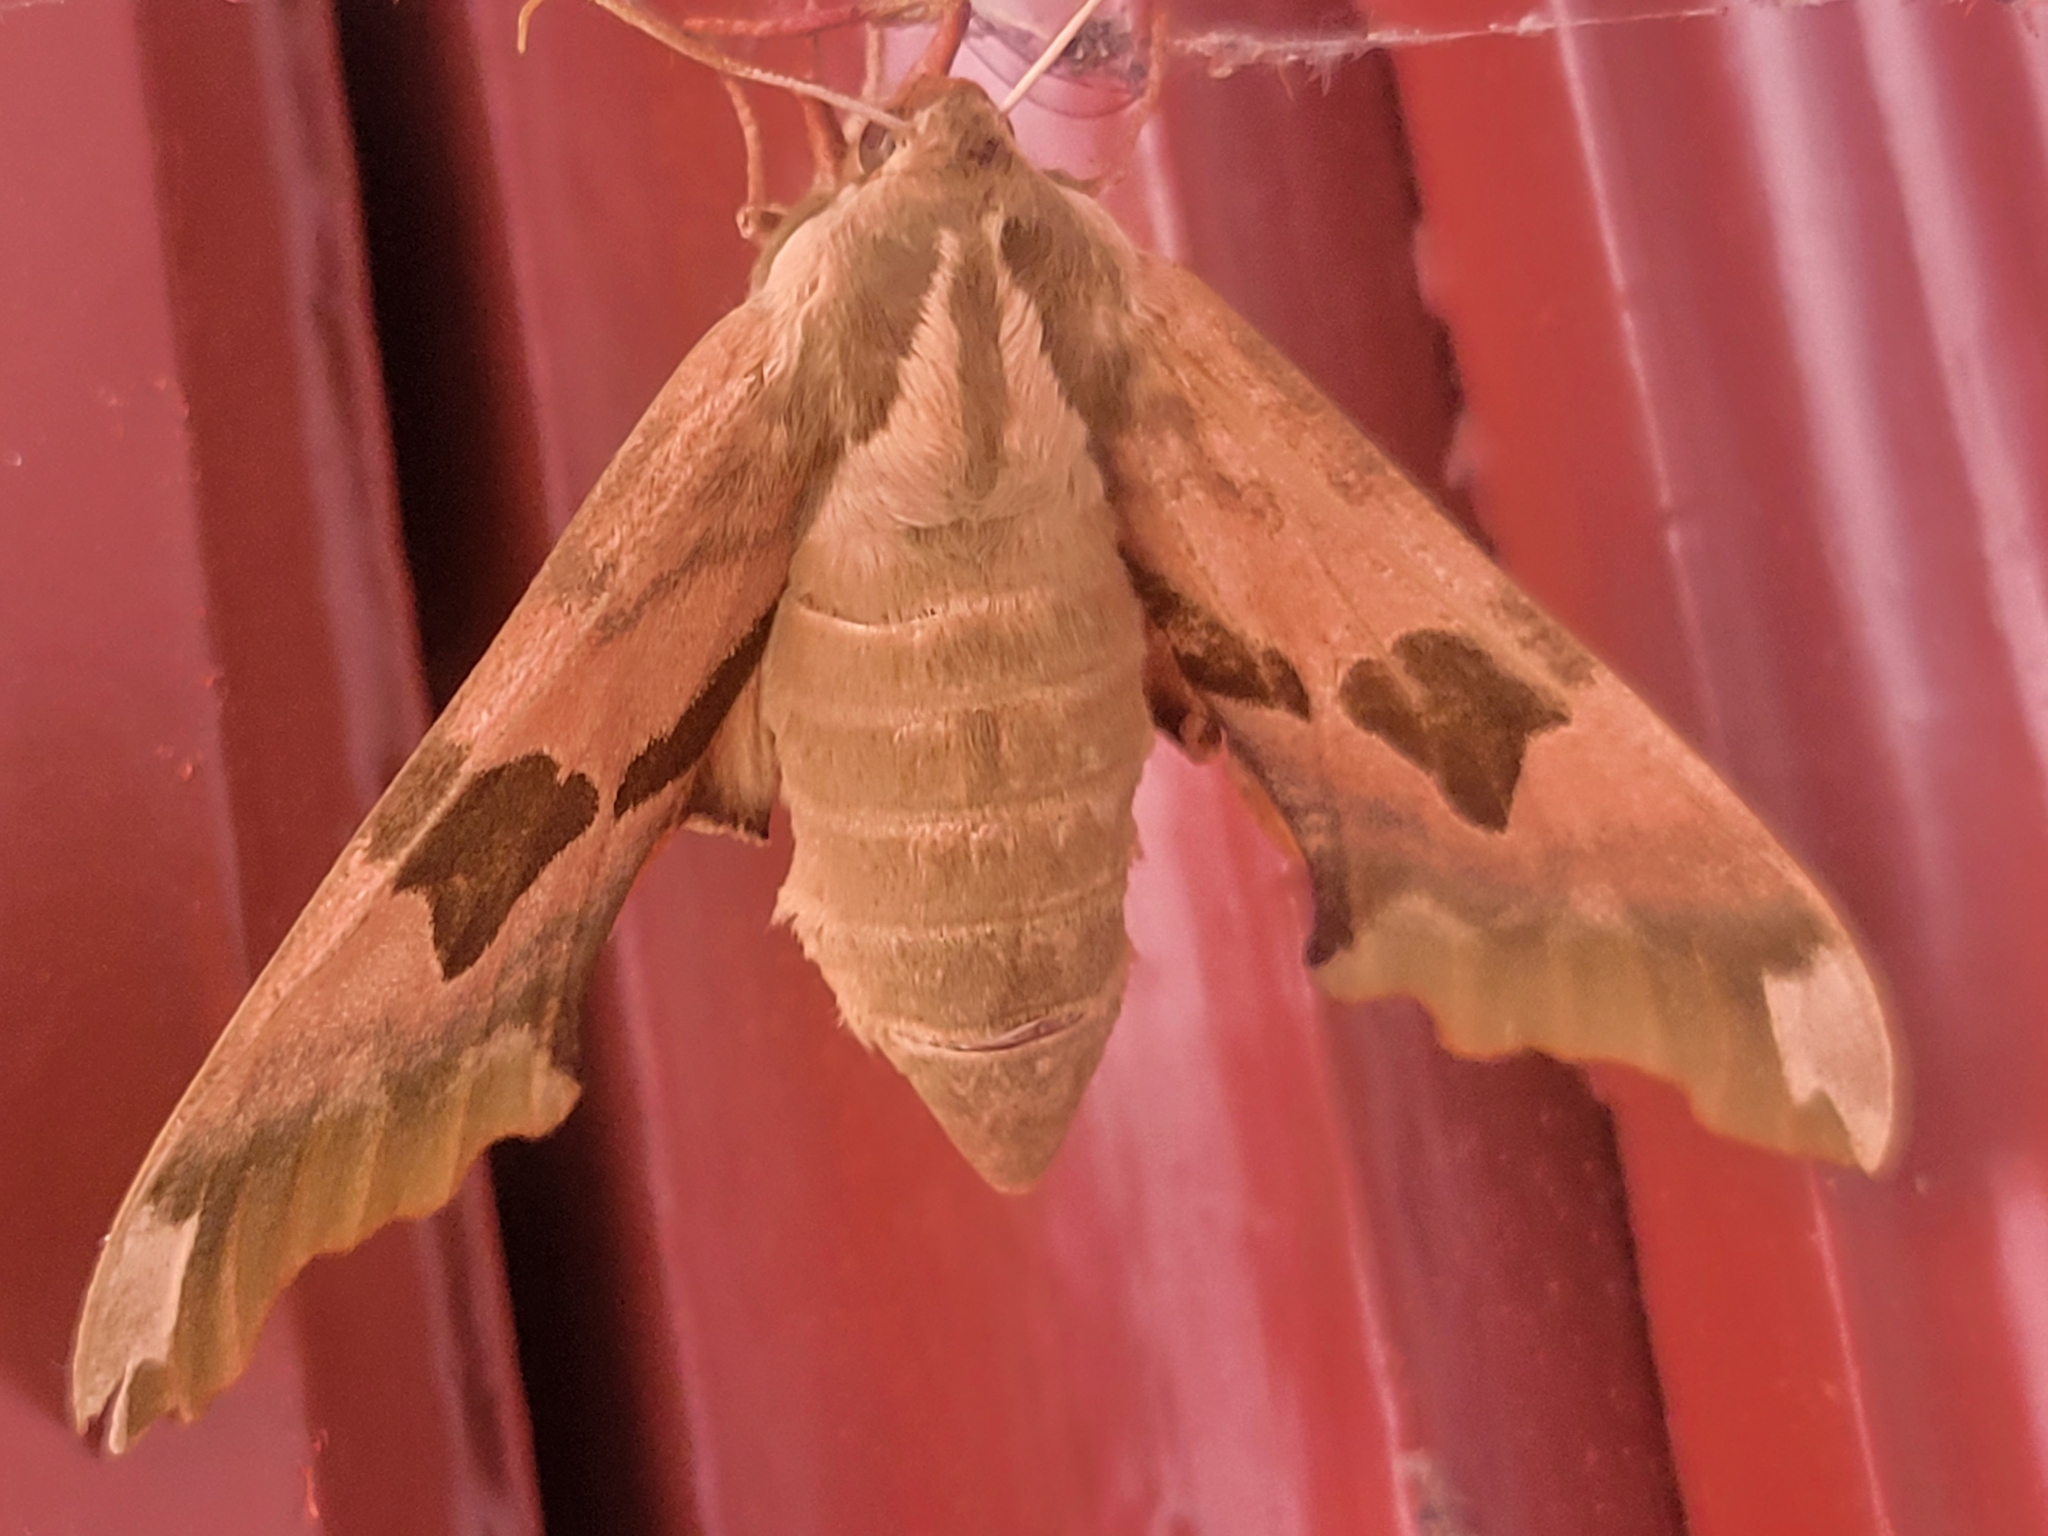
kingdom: Animalia
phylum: Arthropoda
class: Insecta
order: Lepidoptera
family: Sphingidae
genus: Mimas
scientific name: Mimas tiliae
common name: Lime hawk-moth
